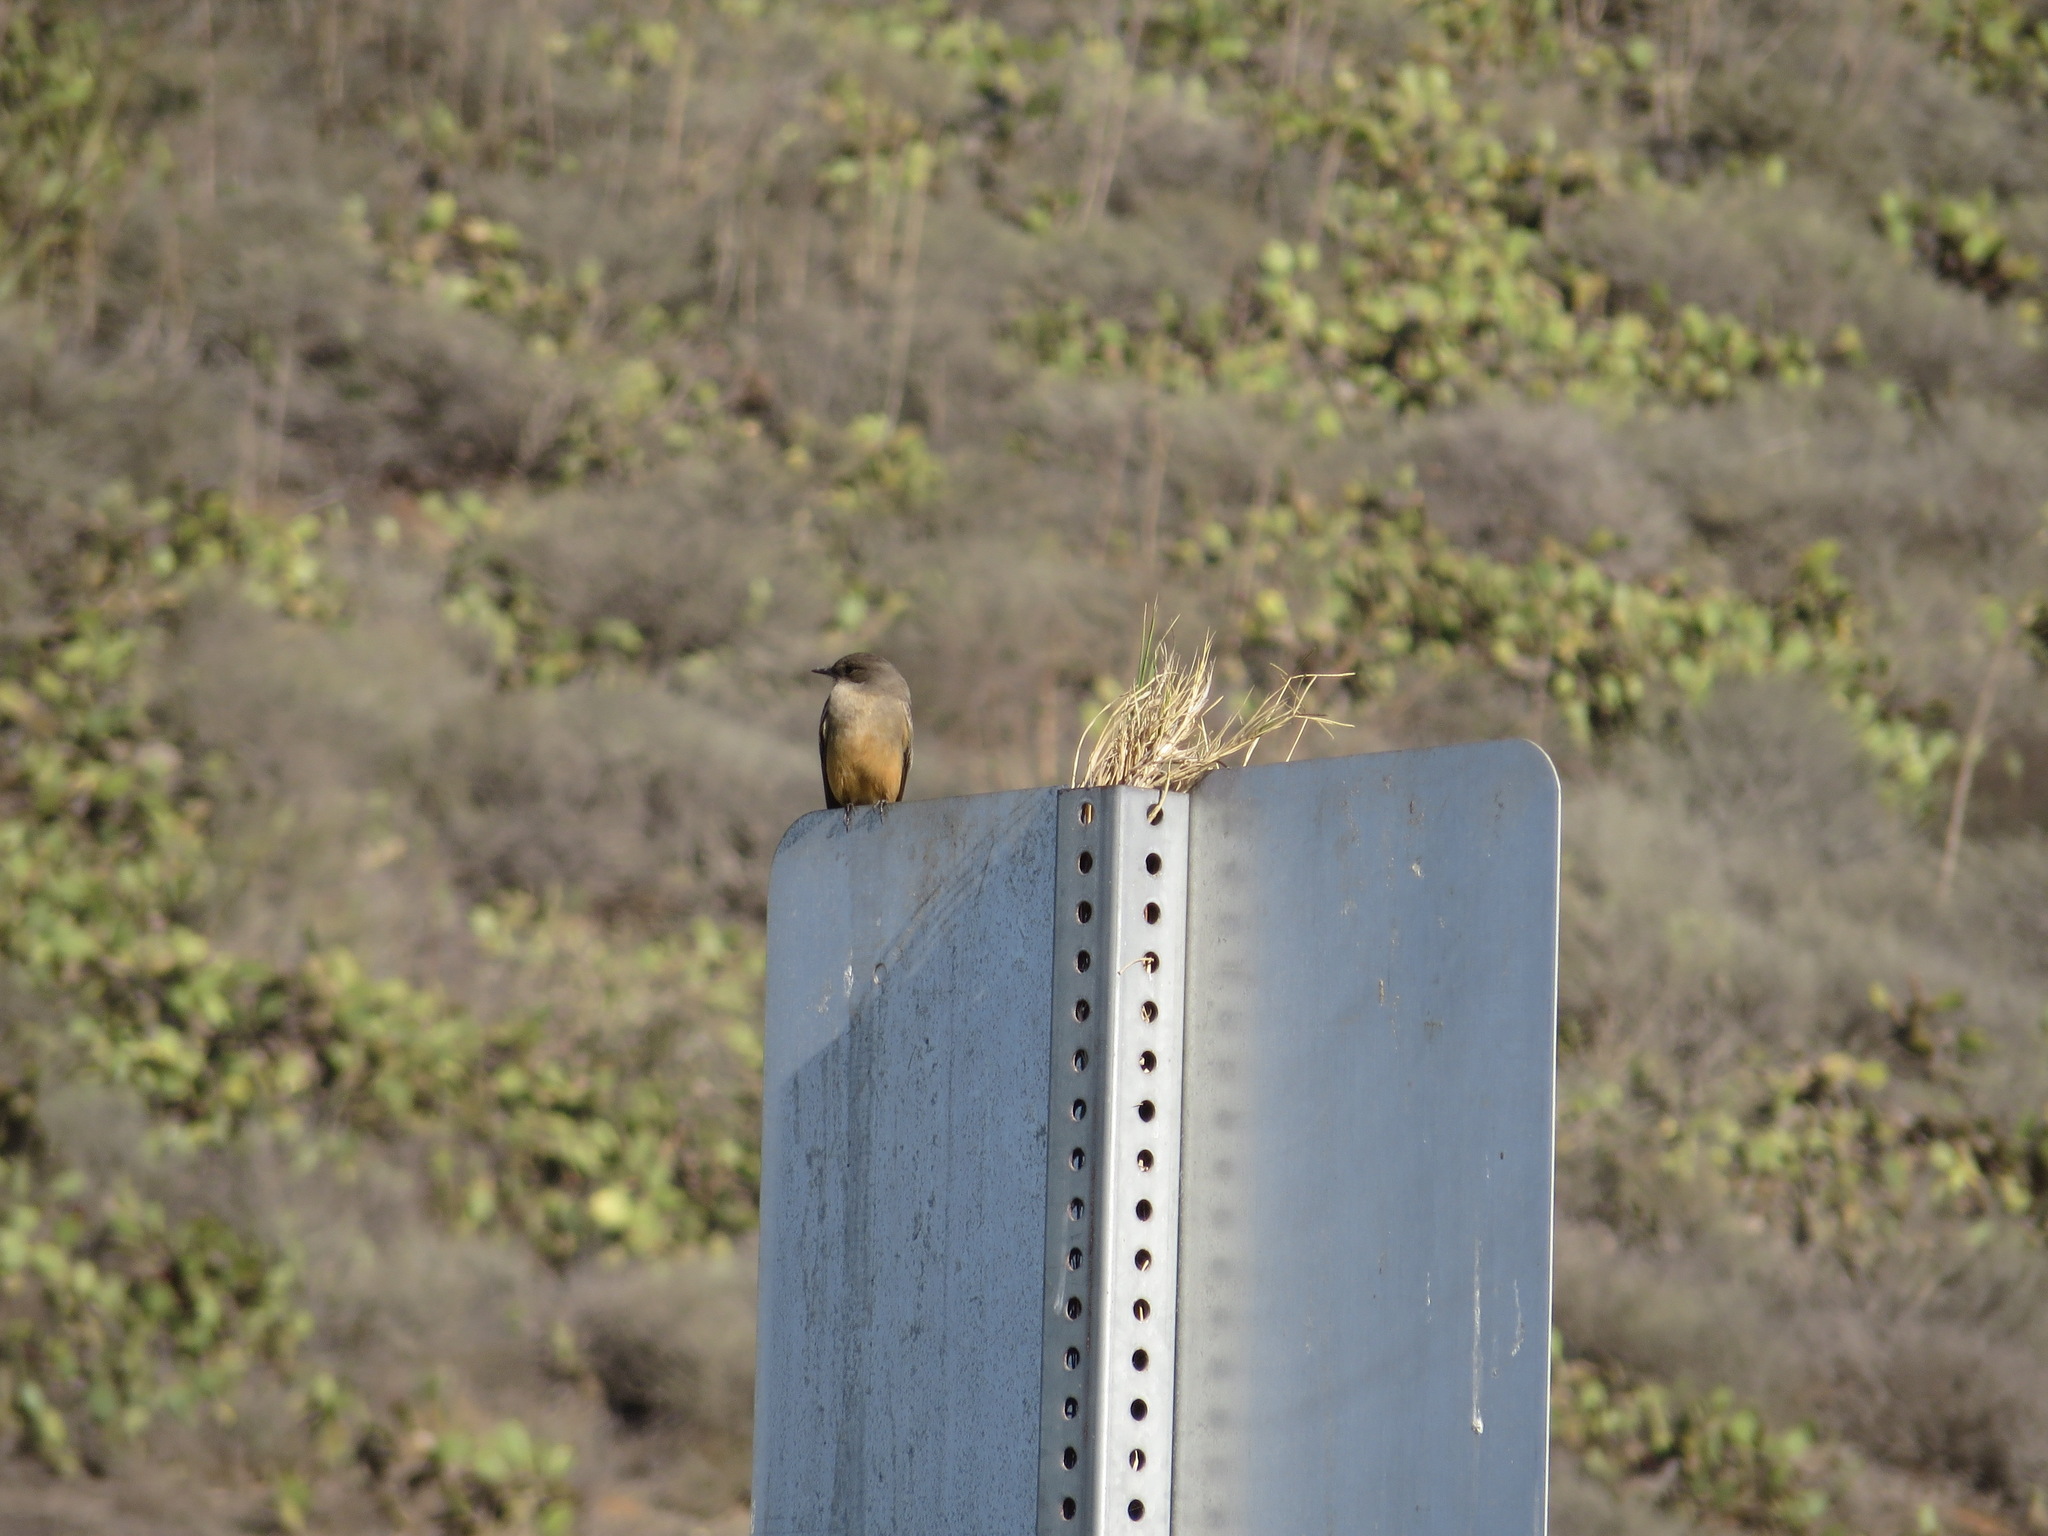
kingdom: Animalia
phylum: Chordata
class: Aves
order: Passeriformes
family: Tyrannidae
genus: Sayornis
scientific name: Sayornis saya
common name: Say's phoebe
